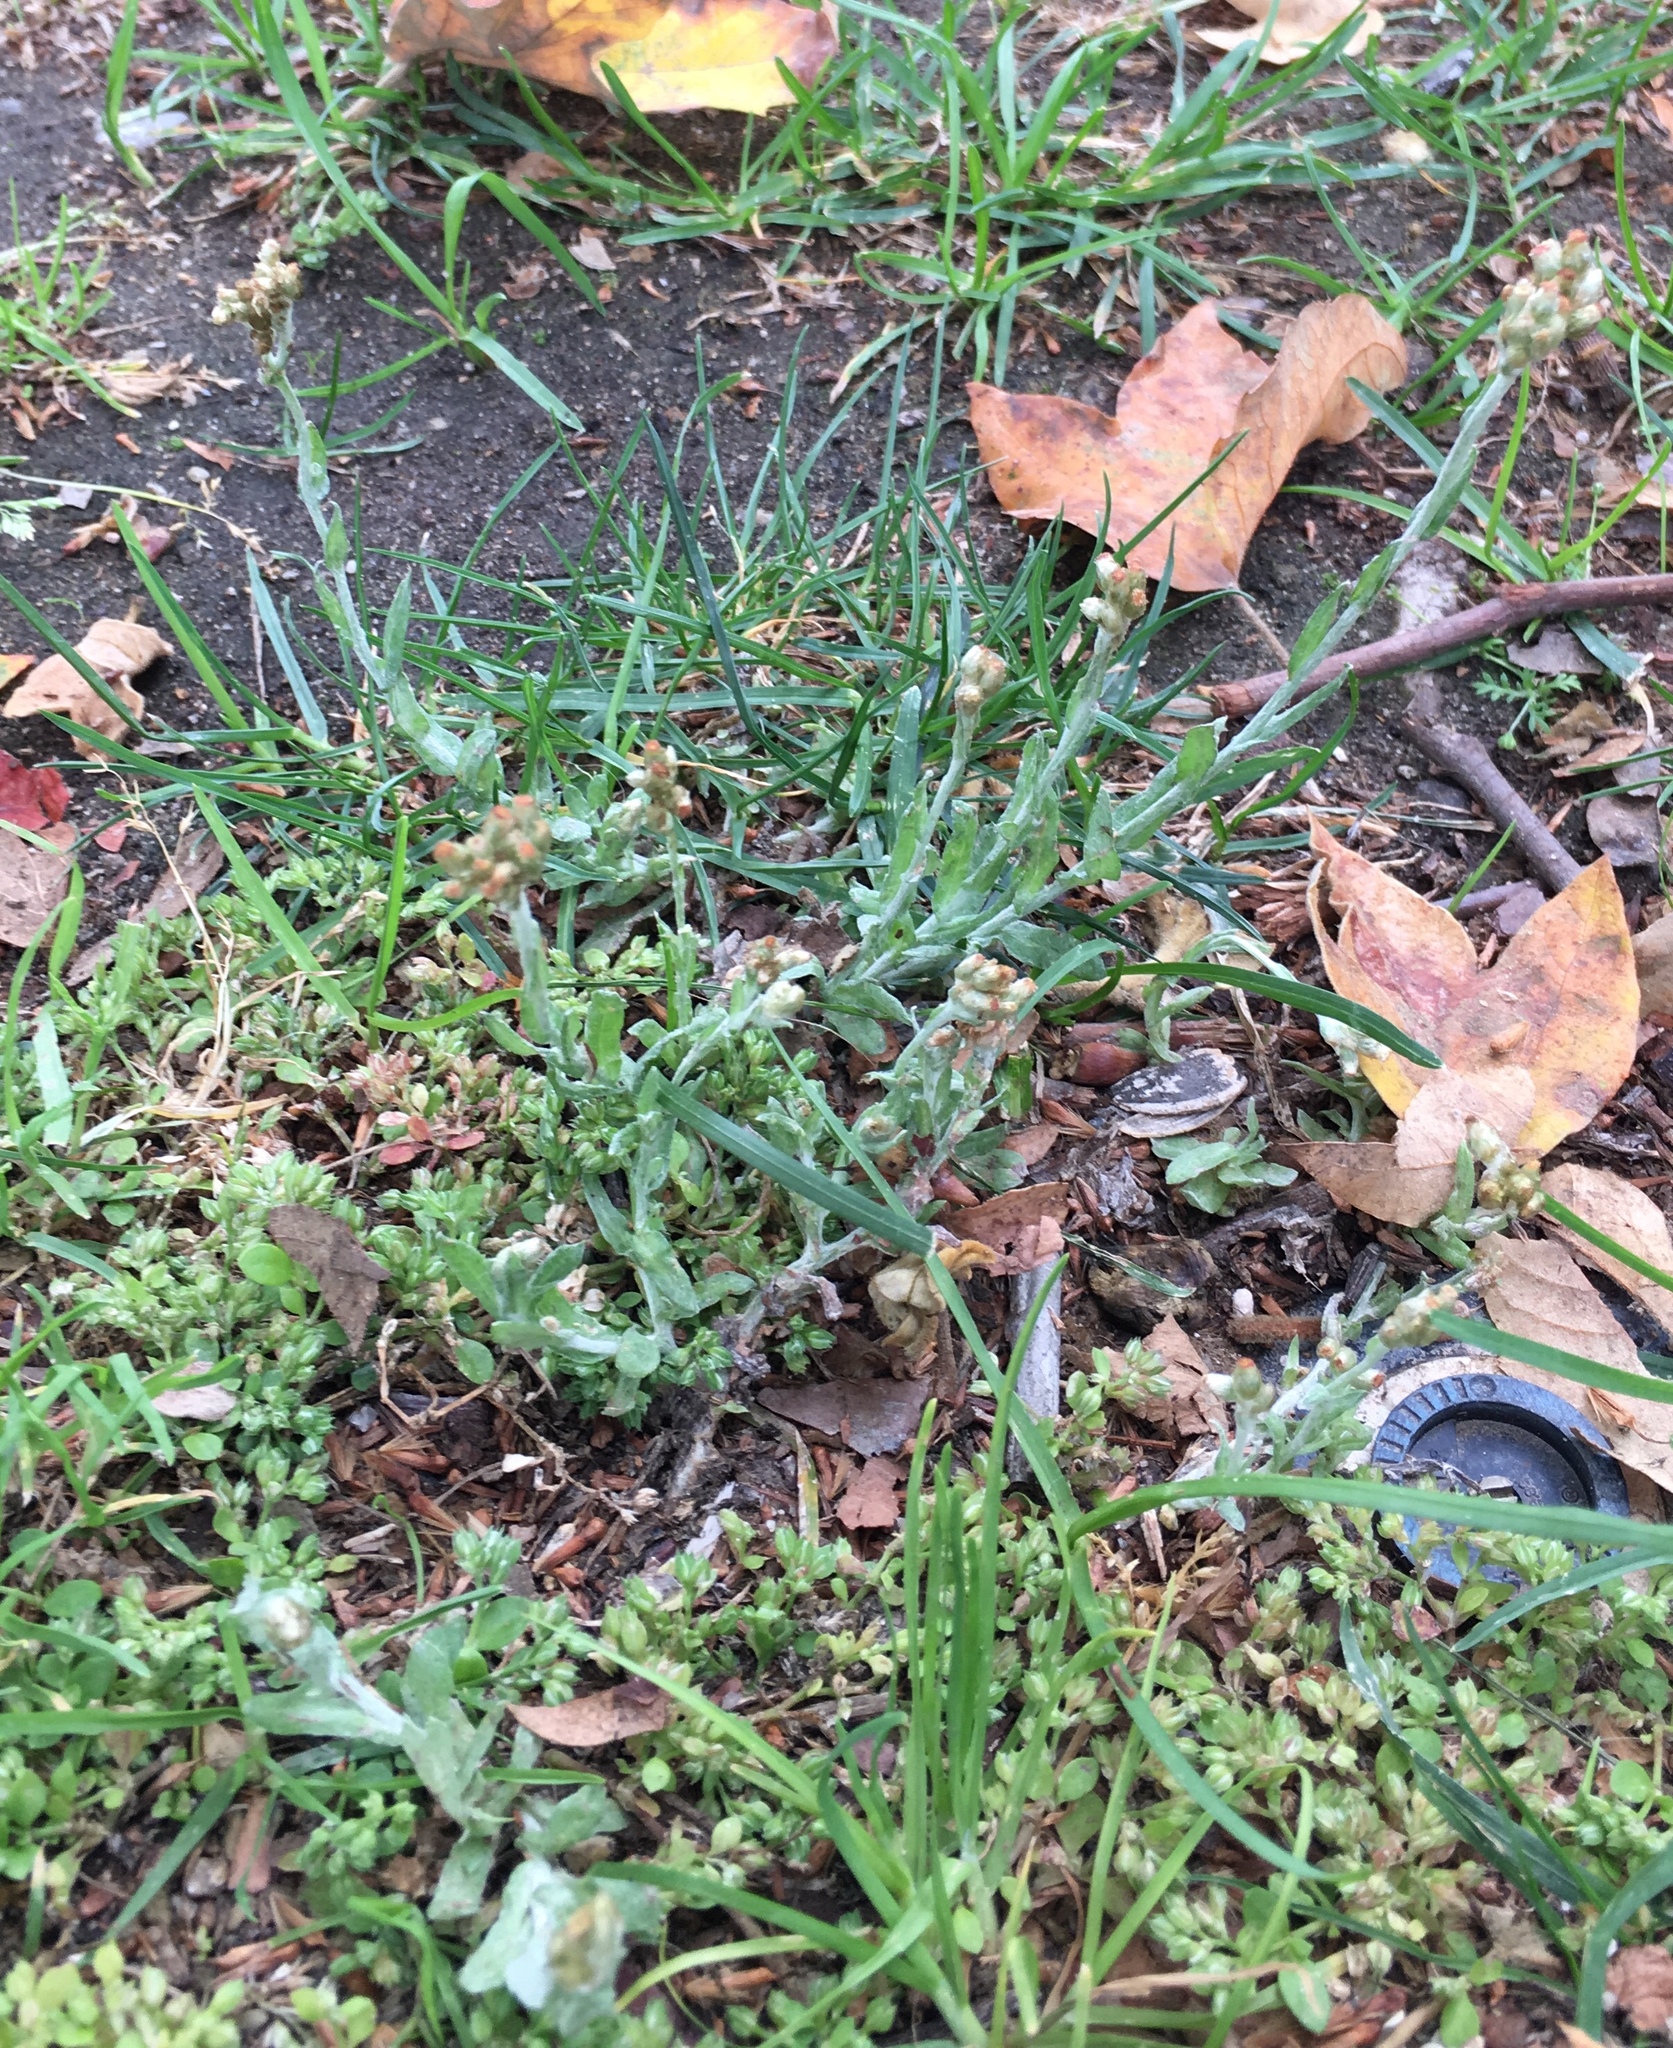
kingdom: Plantae
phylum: Tracheophyta
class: Magnoliopsida
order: Asterales
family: Asteraceae
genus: Helichrysum
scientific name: Helichrysum luteoalbum
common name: Daisy
